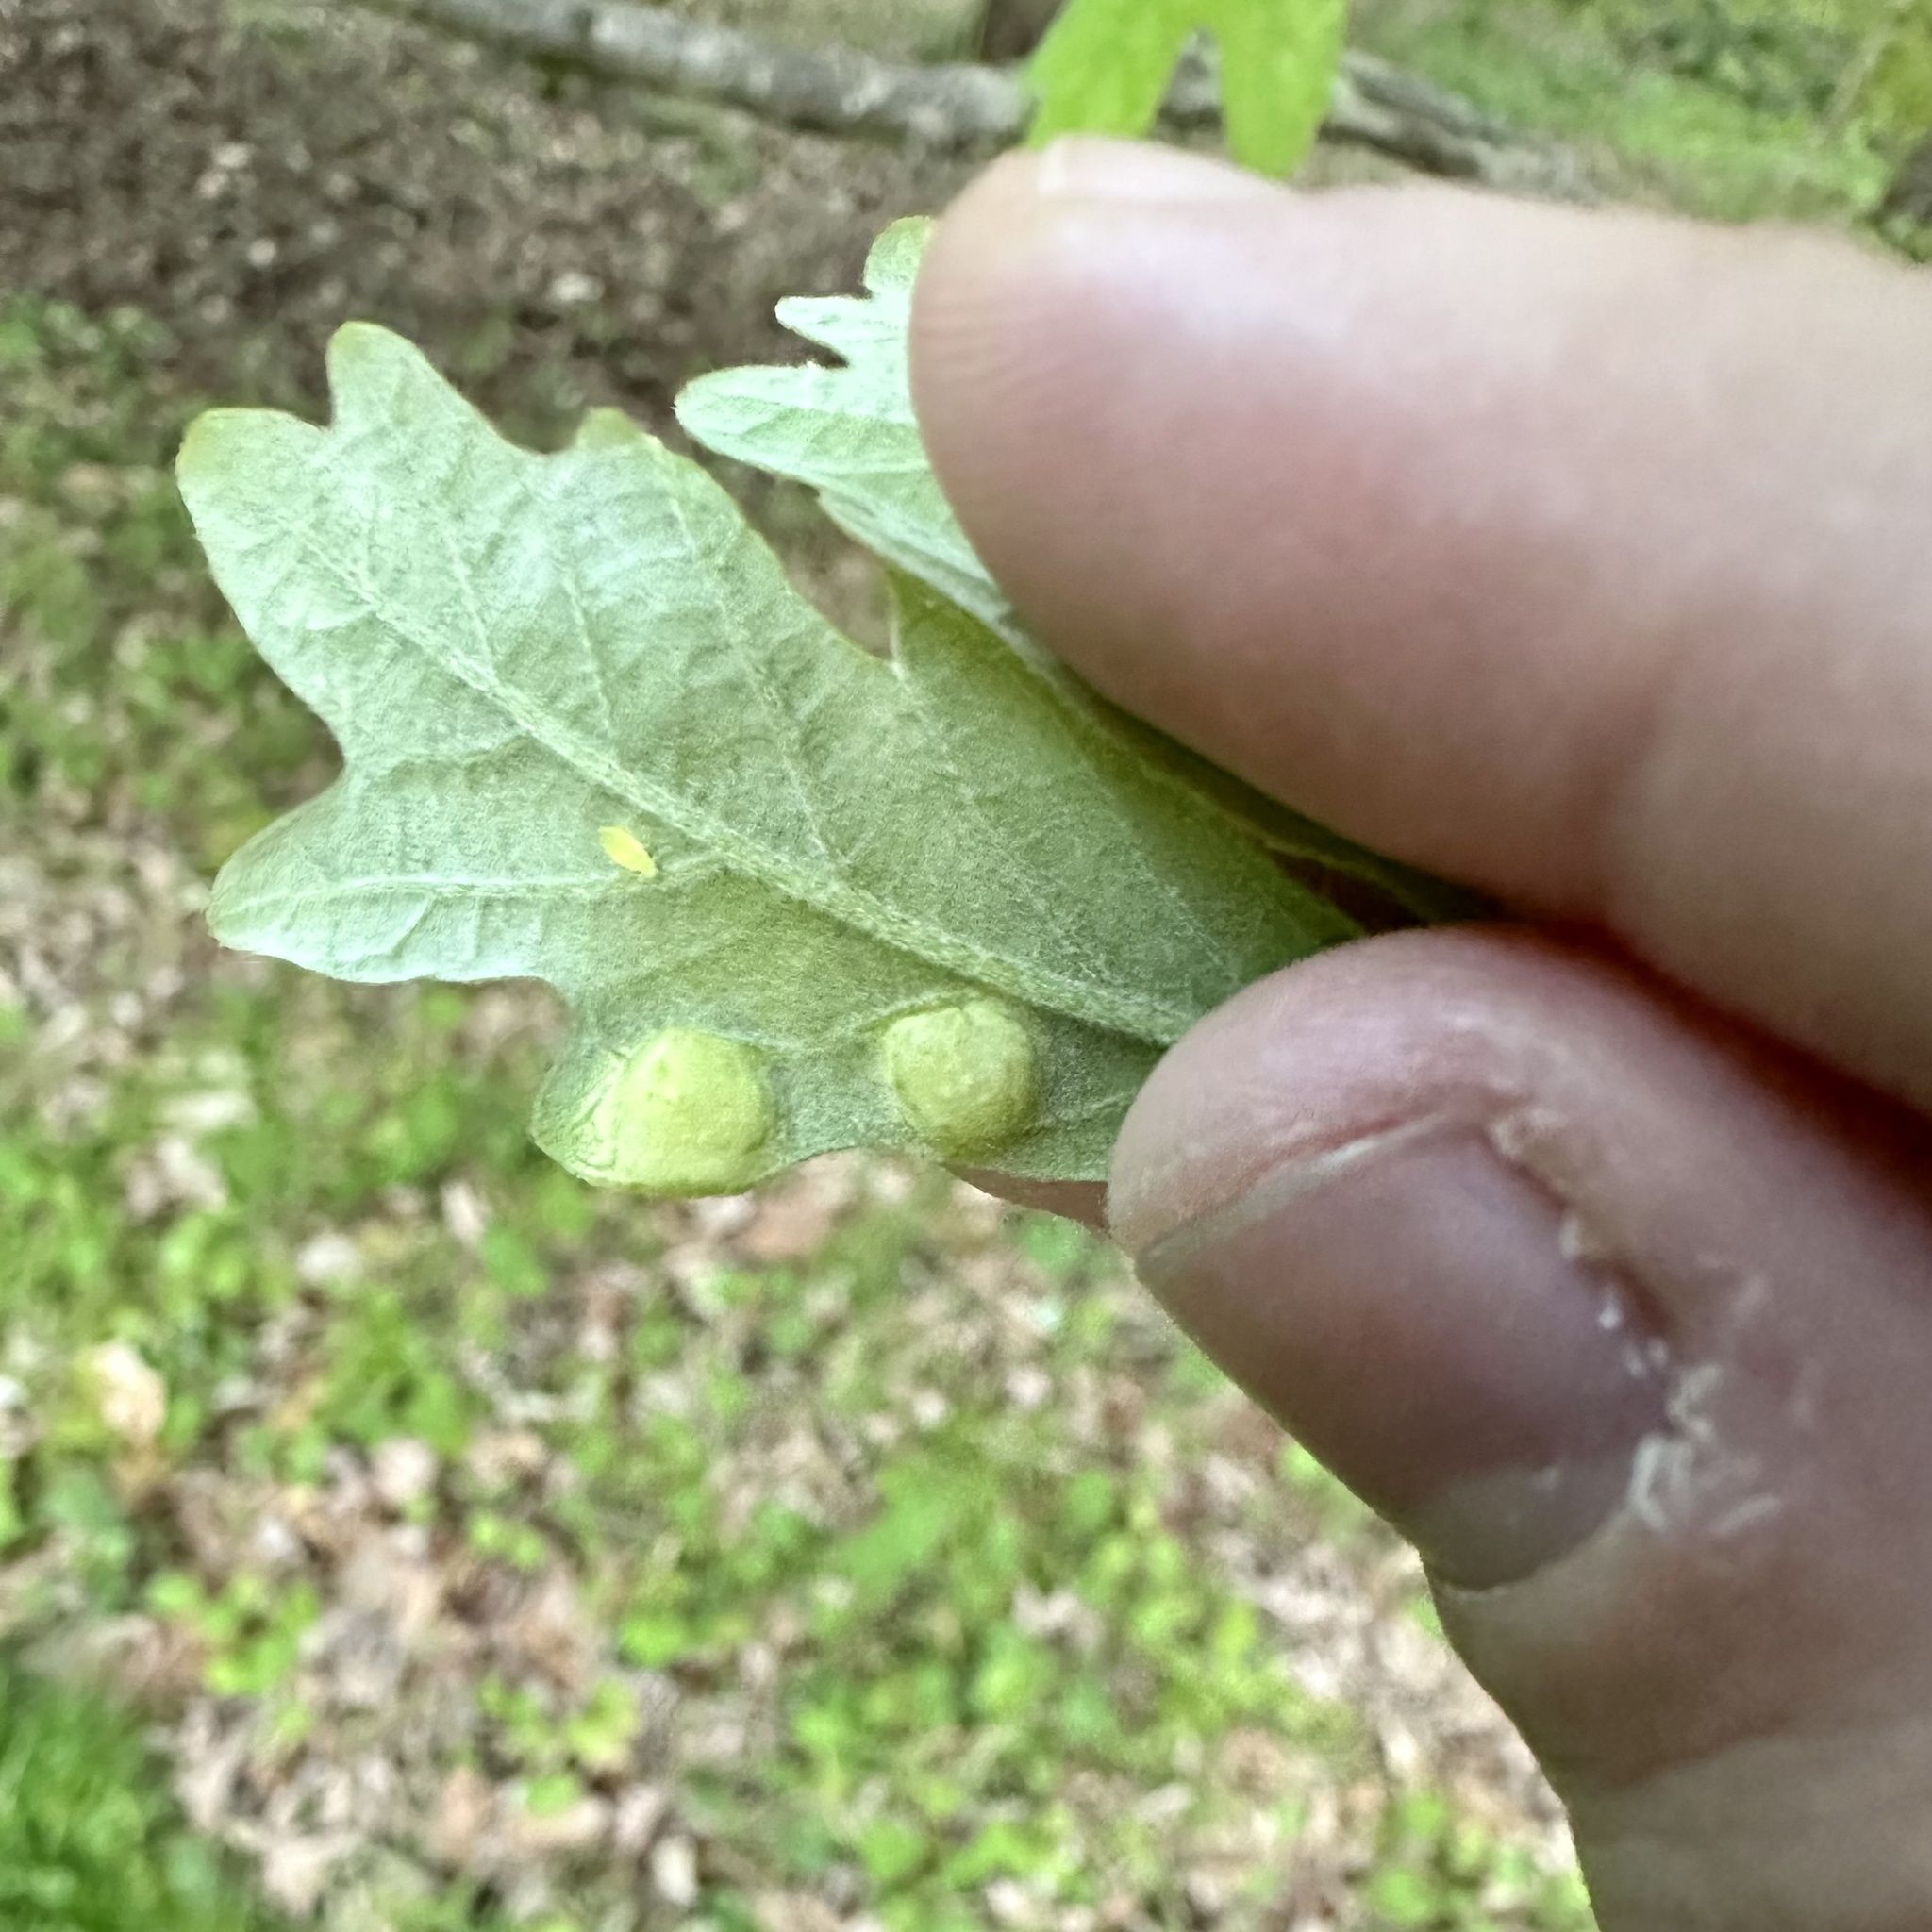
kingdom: Animalia
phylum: Arthropoda
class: Insecta
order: Hymenoptera
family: Cynipidae
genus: Callirhytis
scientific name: Callirhytis
